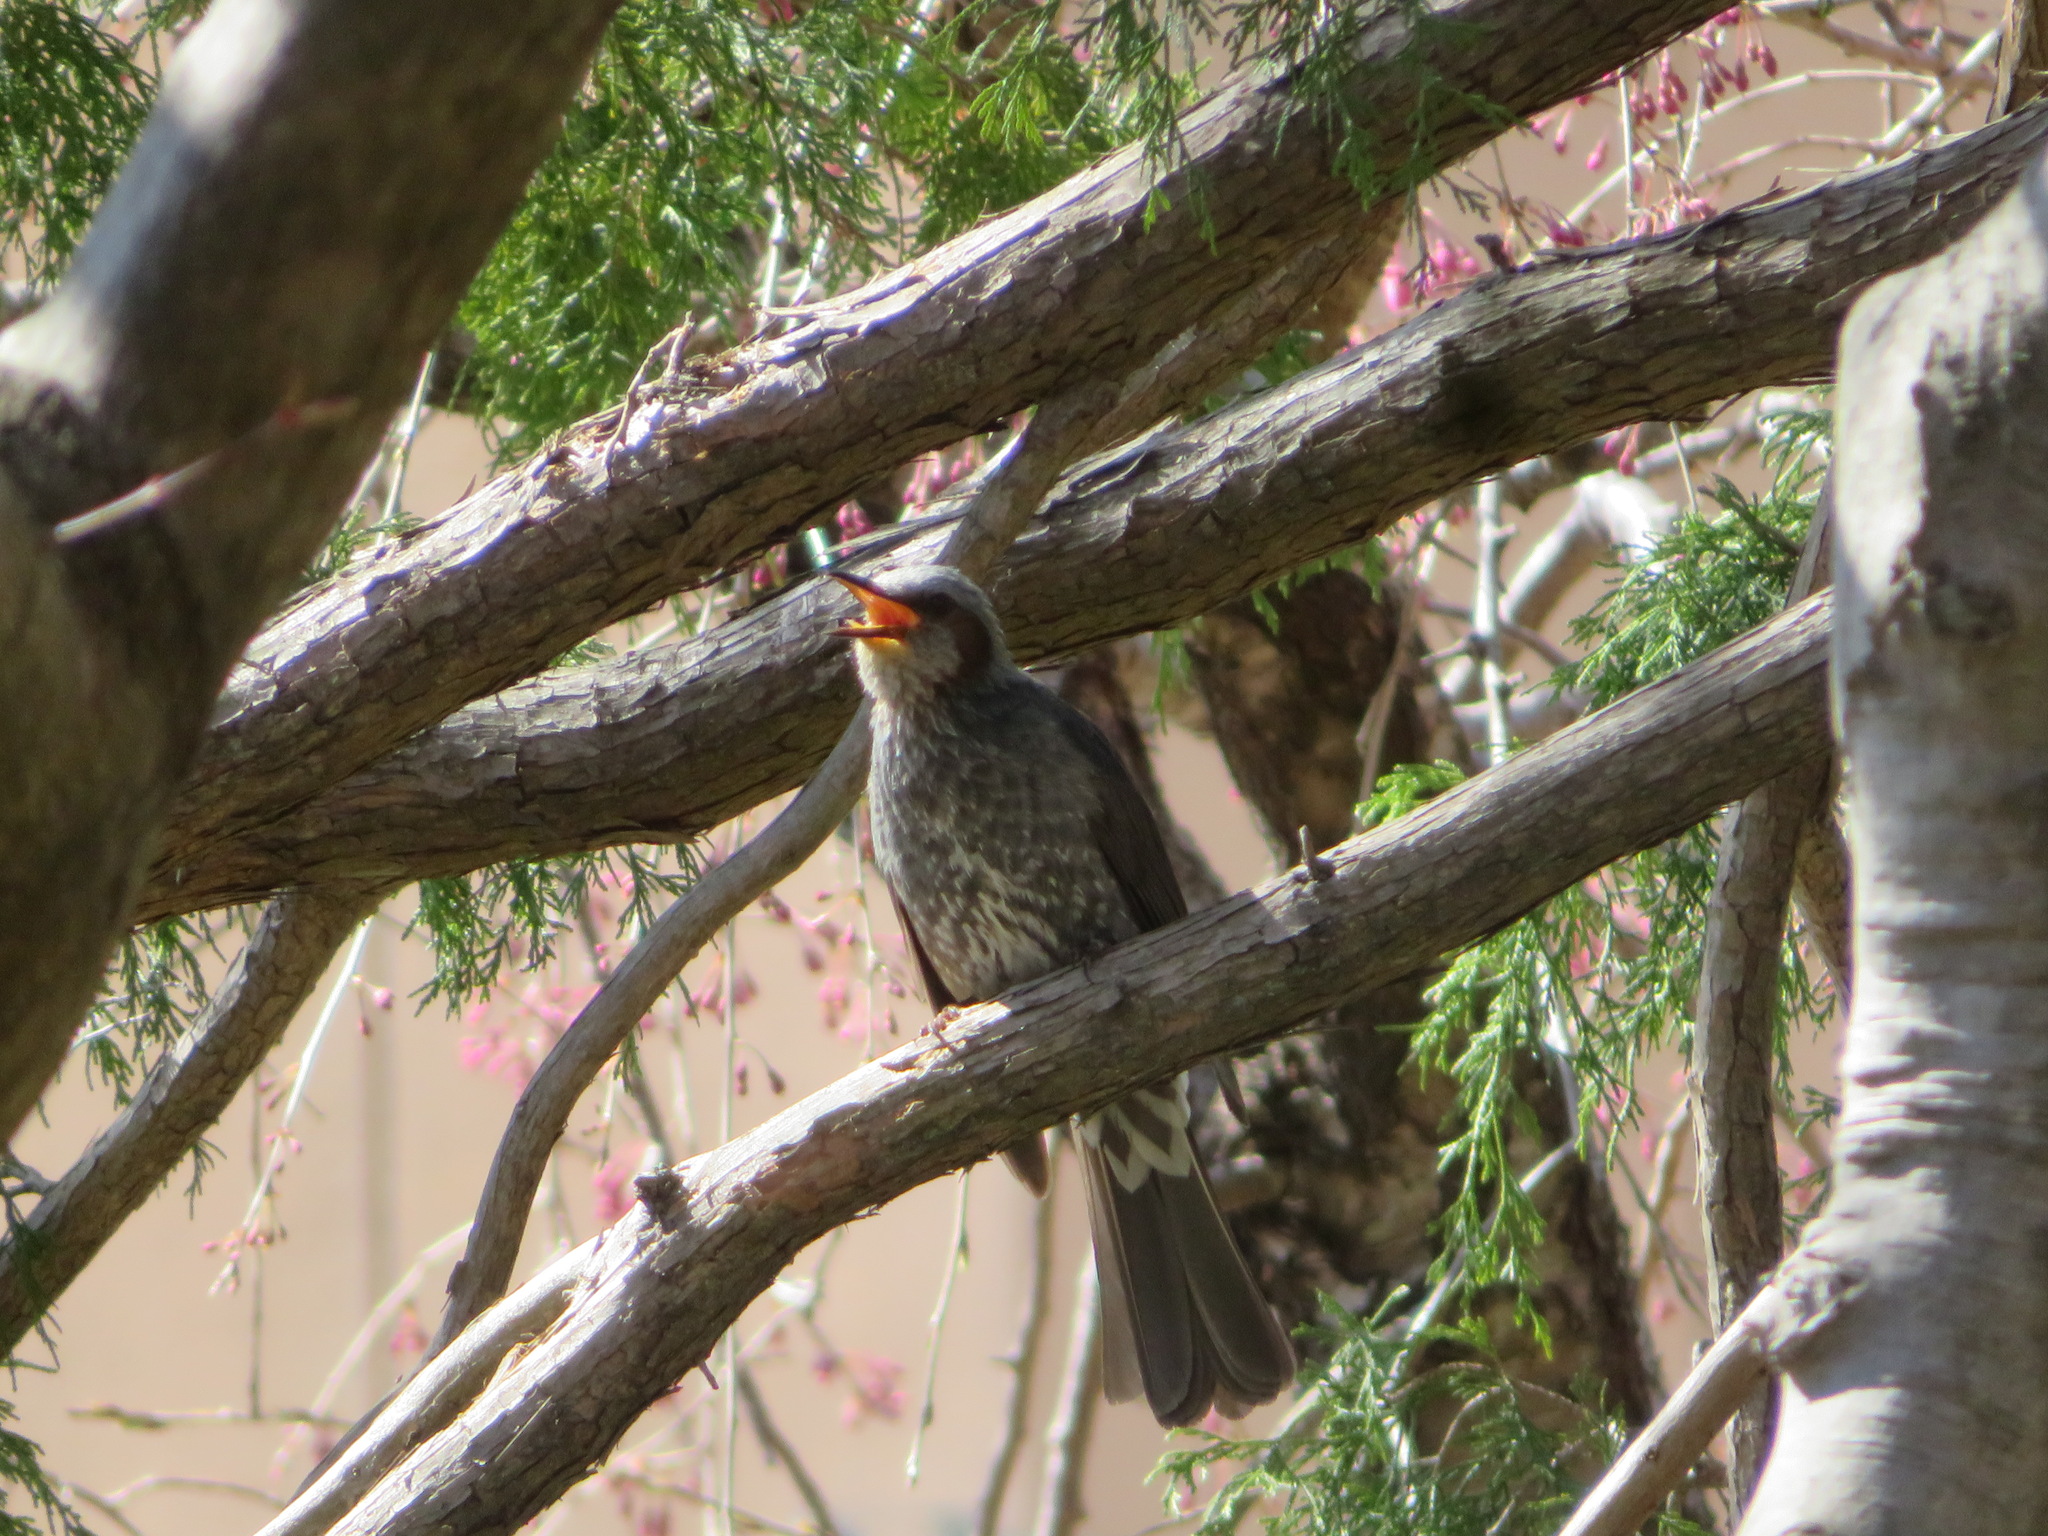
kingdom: Animalia
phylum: Chordata
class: Aves
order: Passeriformes
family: Pycnonotidae
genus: Hypsipetes
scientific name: Hypsipetes amaurotis
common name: Brown-eared bulbul
